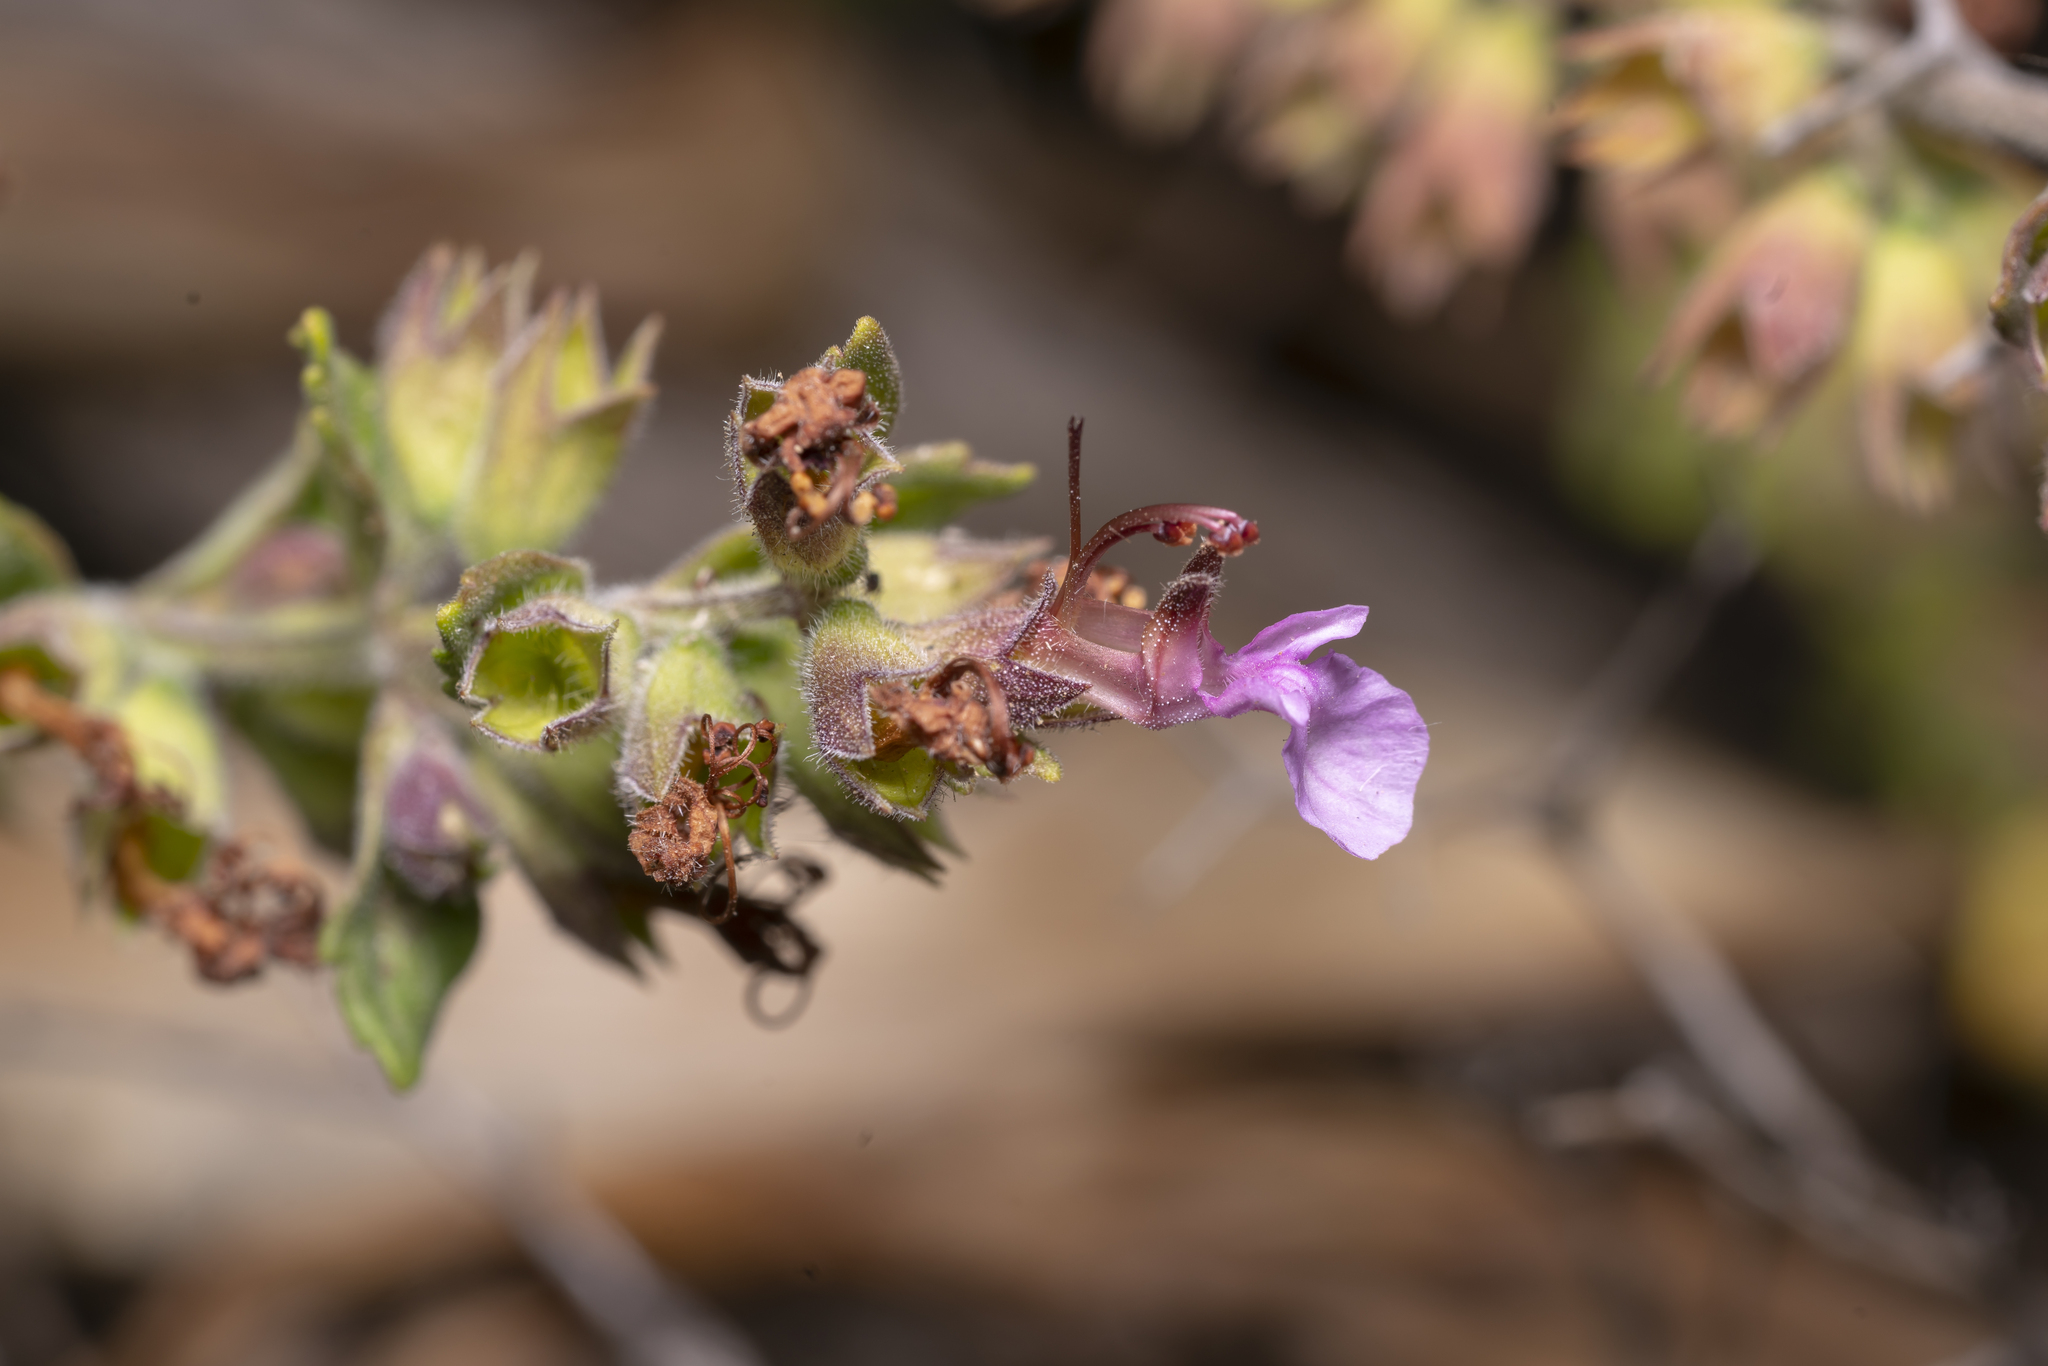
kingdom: Plantae
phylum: Tracheophyta
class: Magnoliopsida
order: Lamiales
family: Lamiaceae
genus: Teucrium
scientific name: Teucrium divaricatum
